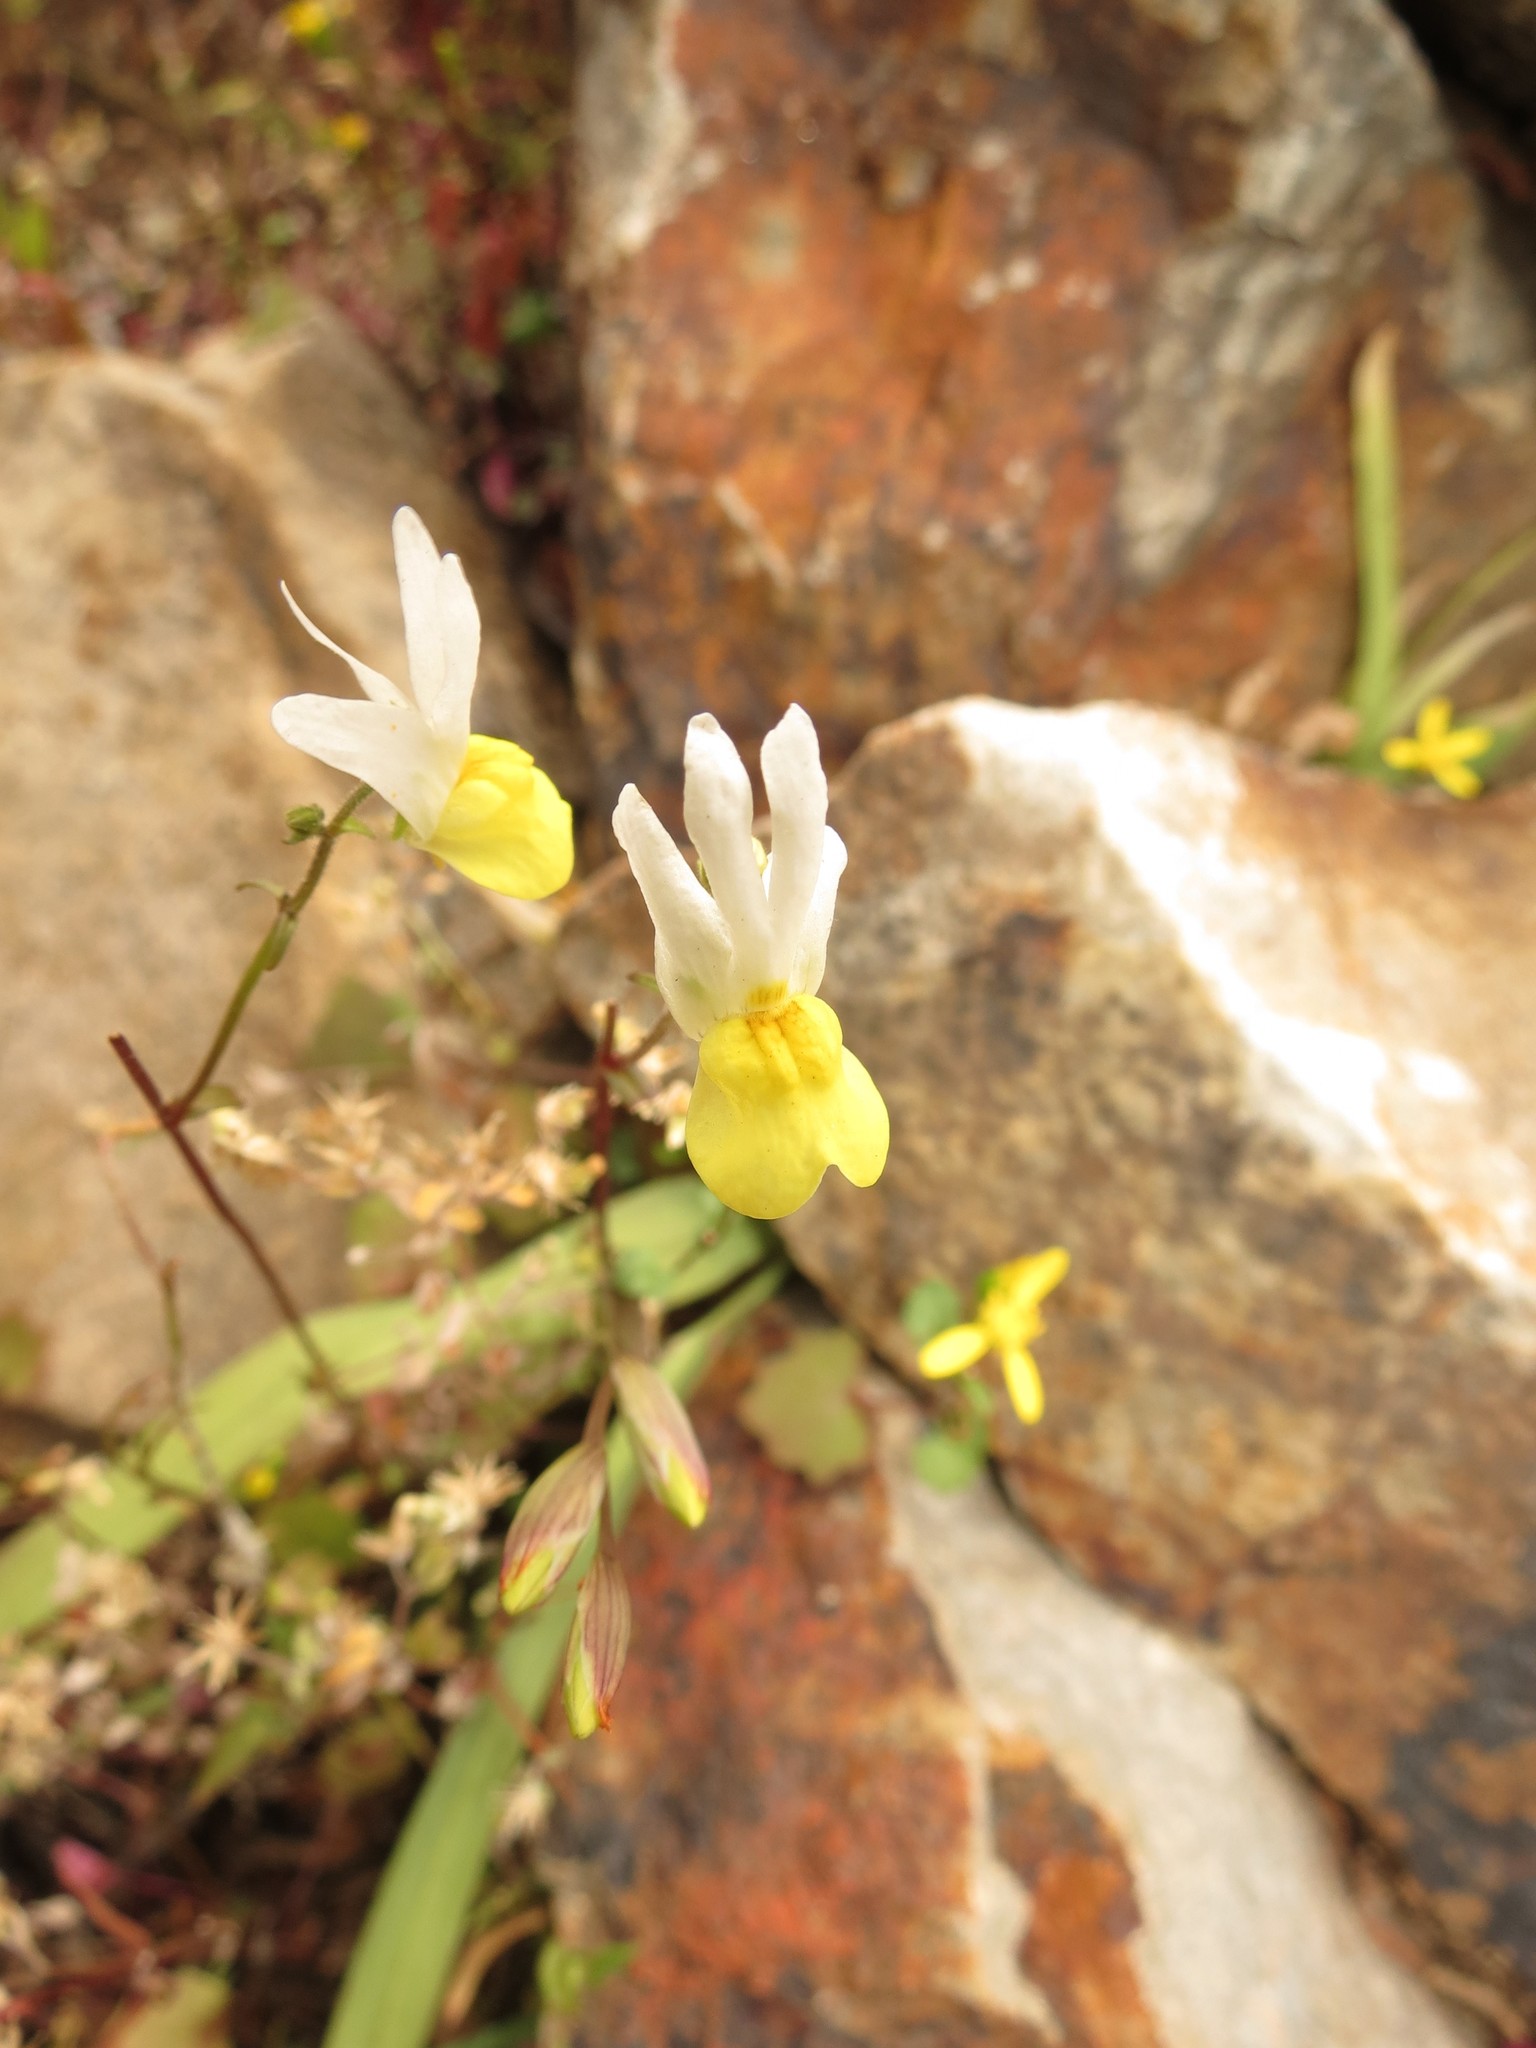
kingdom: Plantae
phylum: Tracheophyta
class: Magnoliopsida
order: Lamiales
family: Scrophulariaceae
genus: Nemesia
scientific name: Nemesia ligulata
